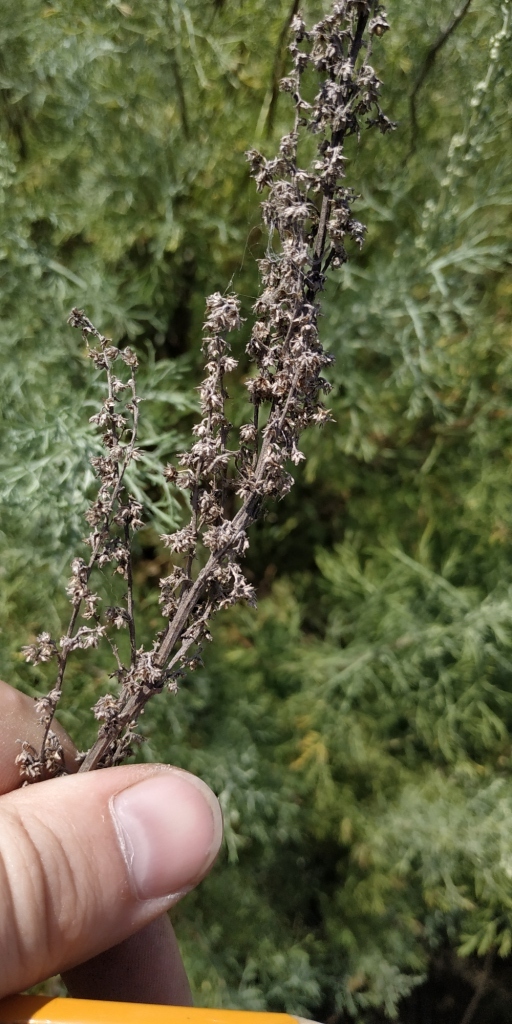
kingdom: Plantae
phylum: Tracheophyta
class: Magnoliopsida
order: Asterales
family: Asteraceae
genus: Artemisia
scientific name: Artemisia abrotanum
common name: Southernwood
